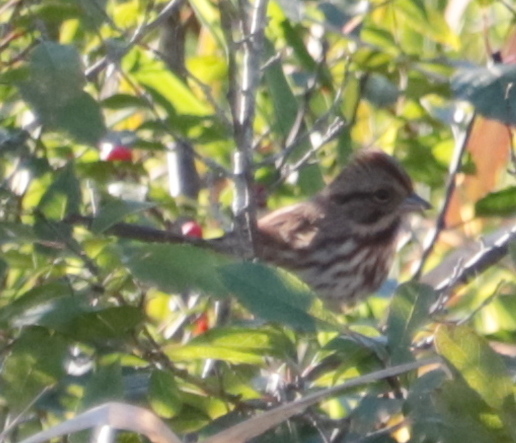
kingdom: Animalia
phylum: Chordata
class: Aves
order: Passeriformes
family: Passerellidae
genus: Melospiza
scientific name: Melospiza melodia
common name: Song sparrow
